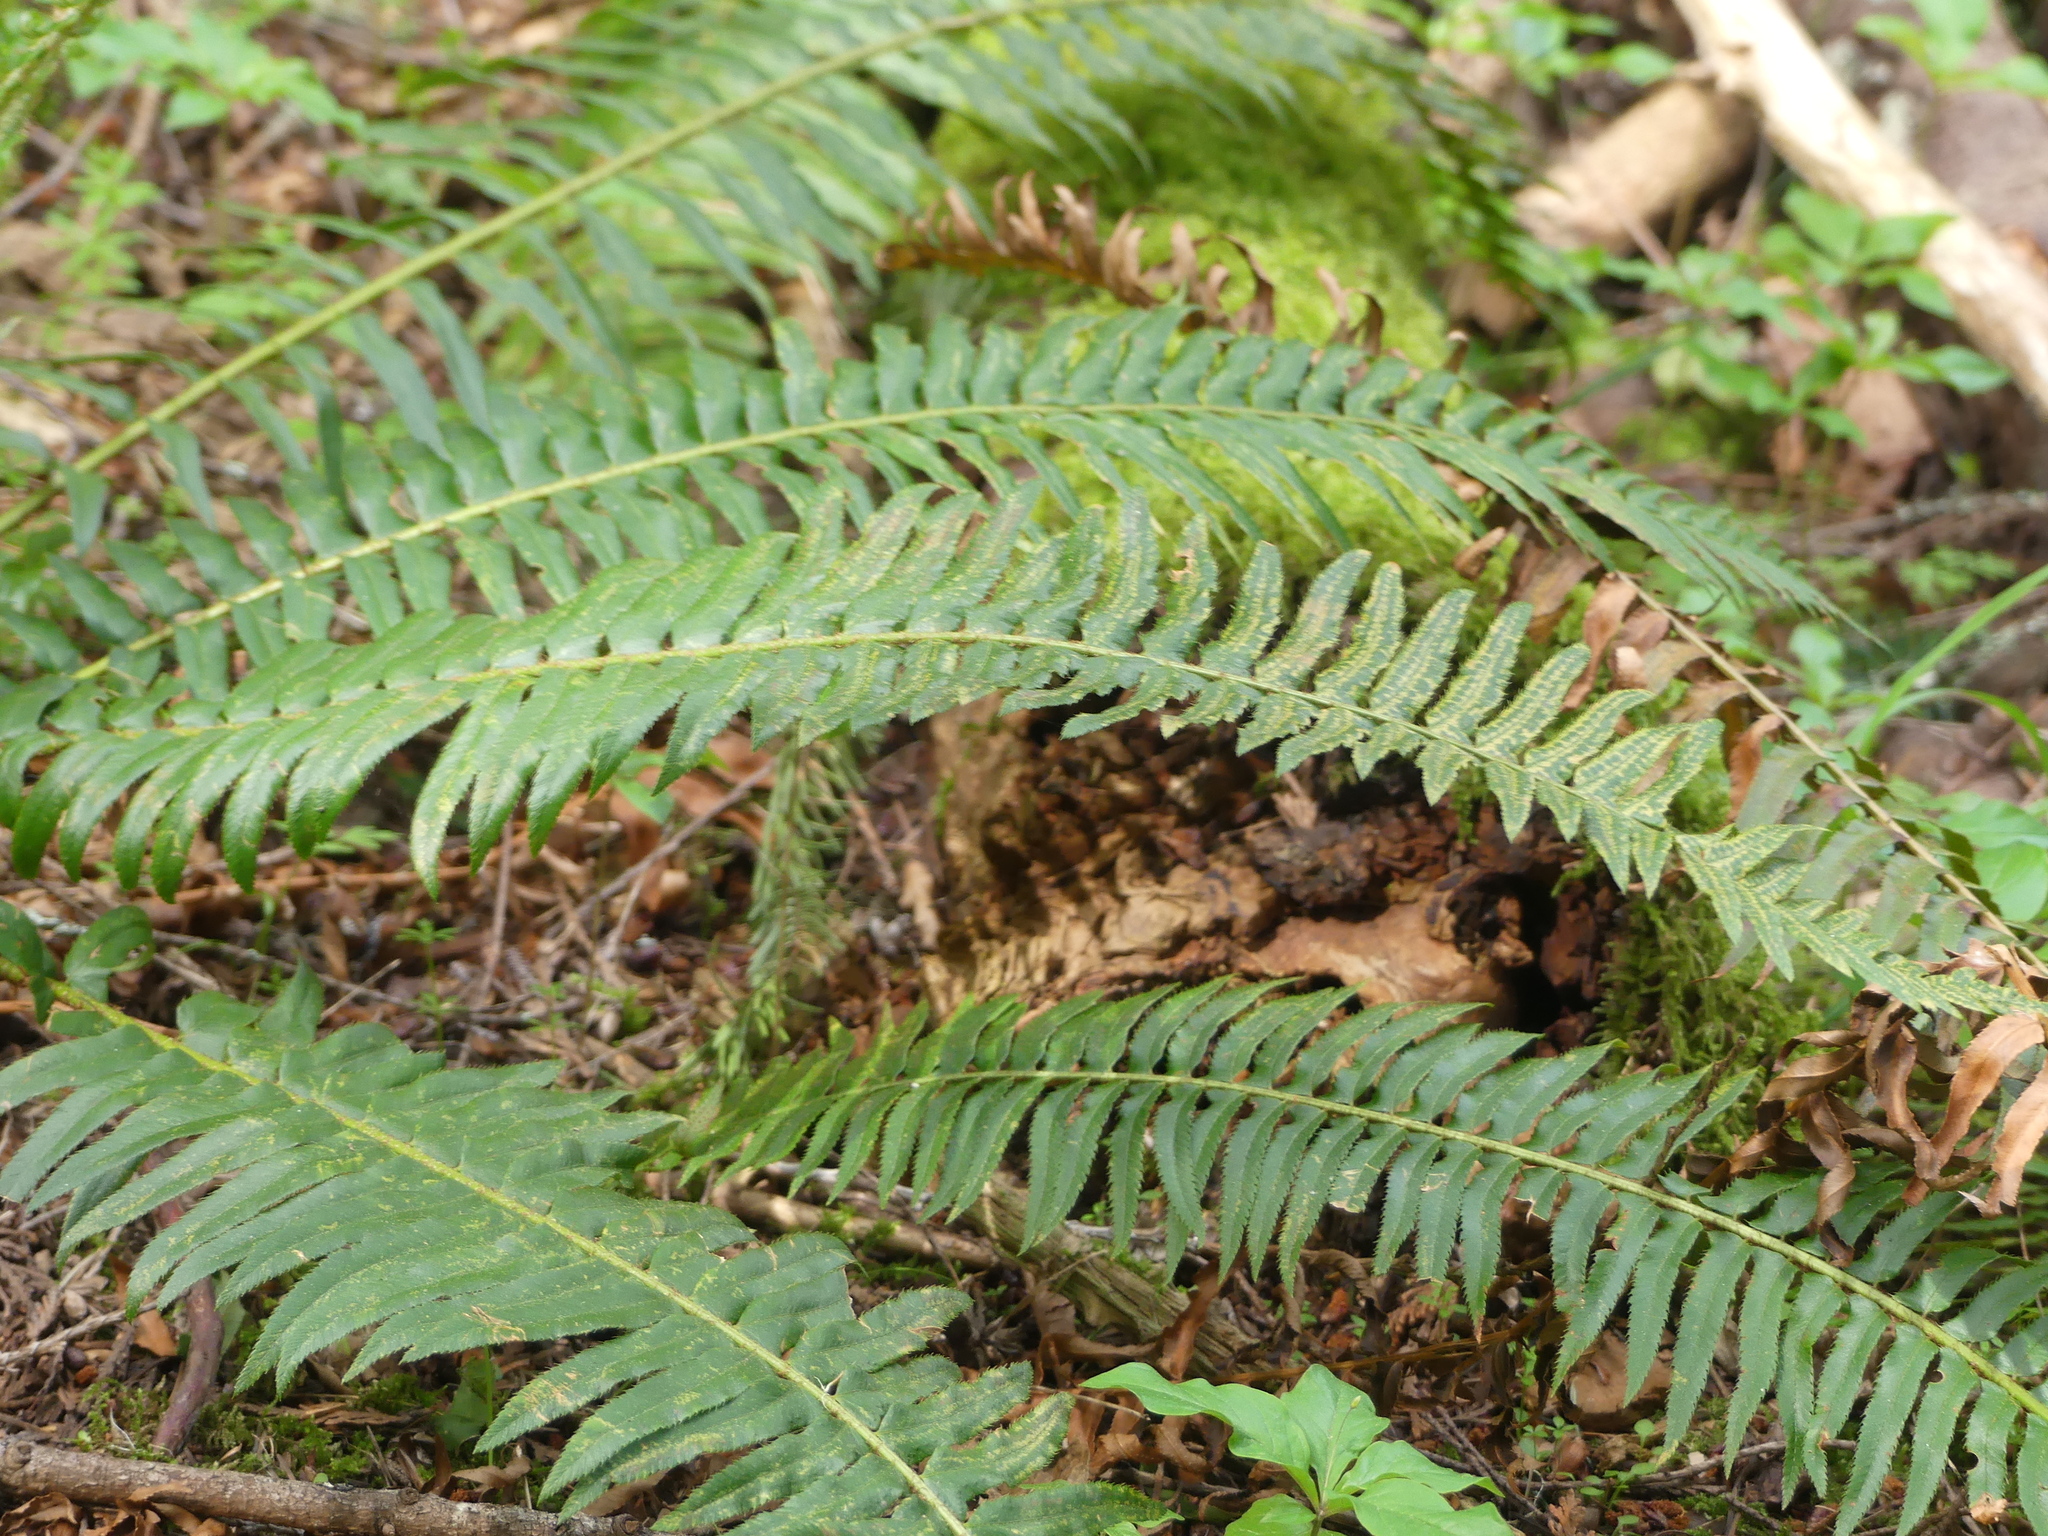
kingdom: Plantae
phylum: Tracheophyta
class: Polypodiopsida
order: Polypodiales
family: Dryopteridaceae
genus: Polystichum
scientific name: Polystichum munitum
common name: Western sword-fern
